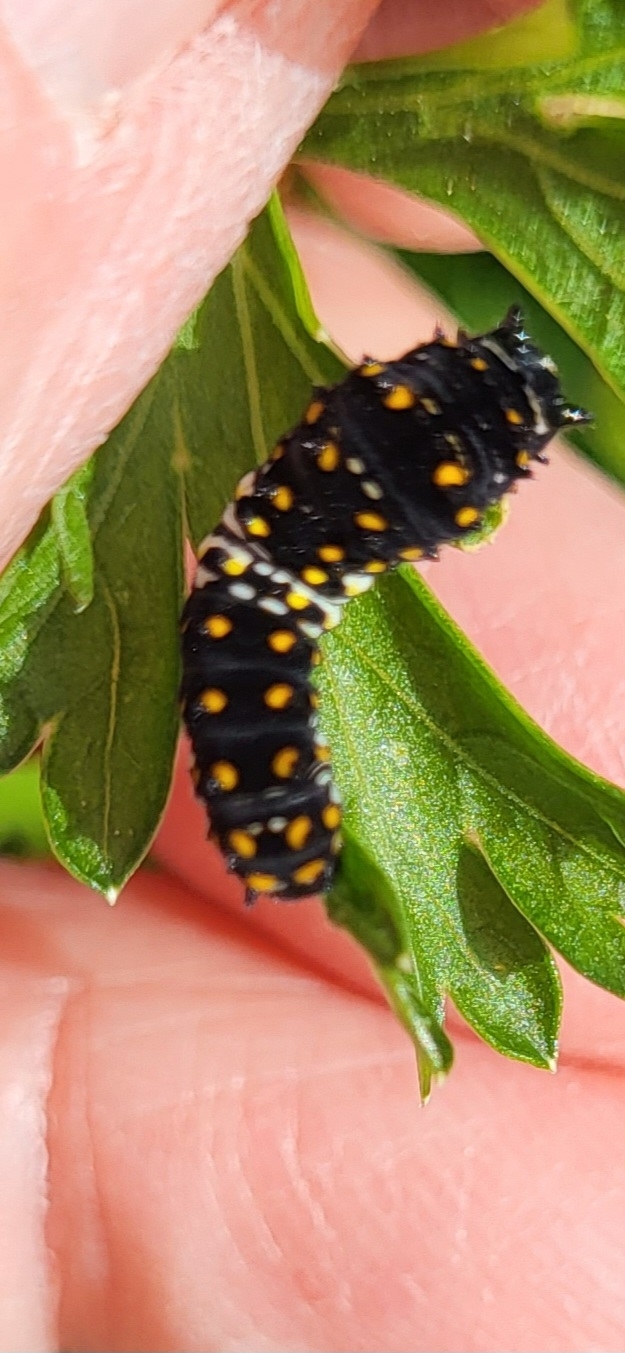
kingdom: Animalia
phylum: Arthropoda
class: Insecta
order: Lepidoptera
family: Papilionidae
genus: Papilio
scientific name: Papilio polyxenes
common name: Black swallowtail
